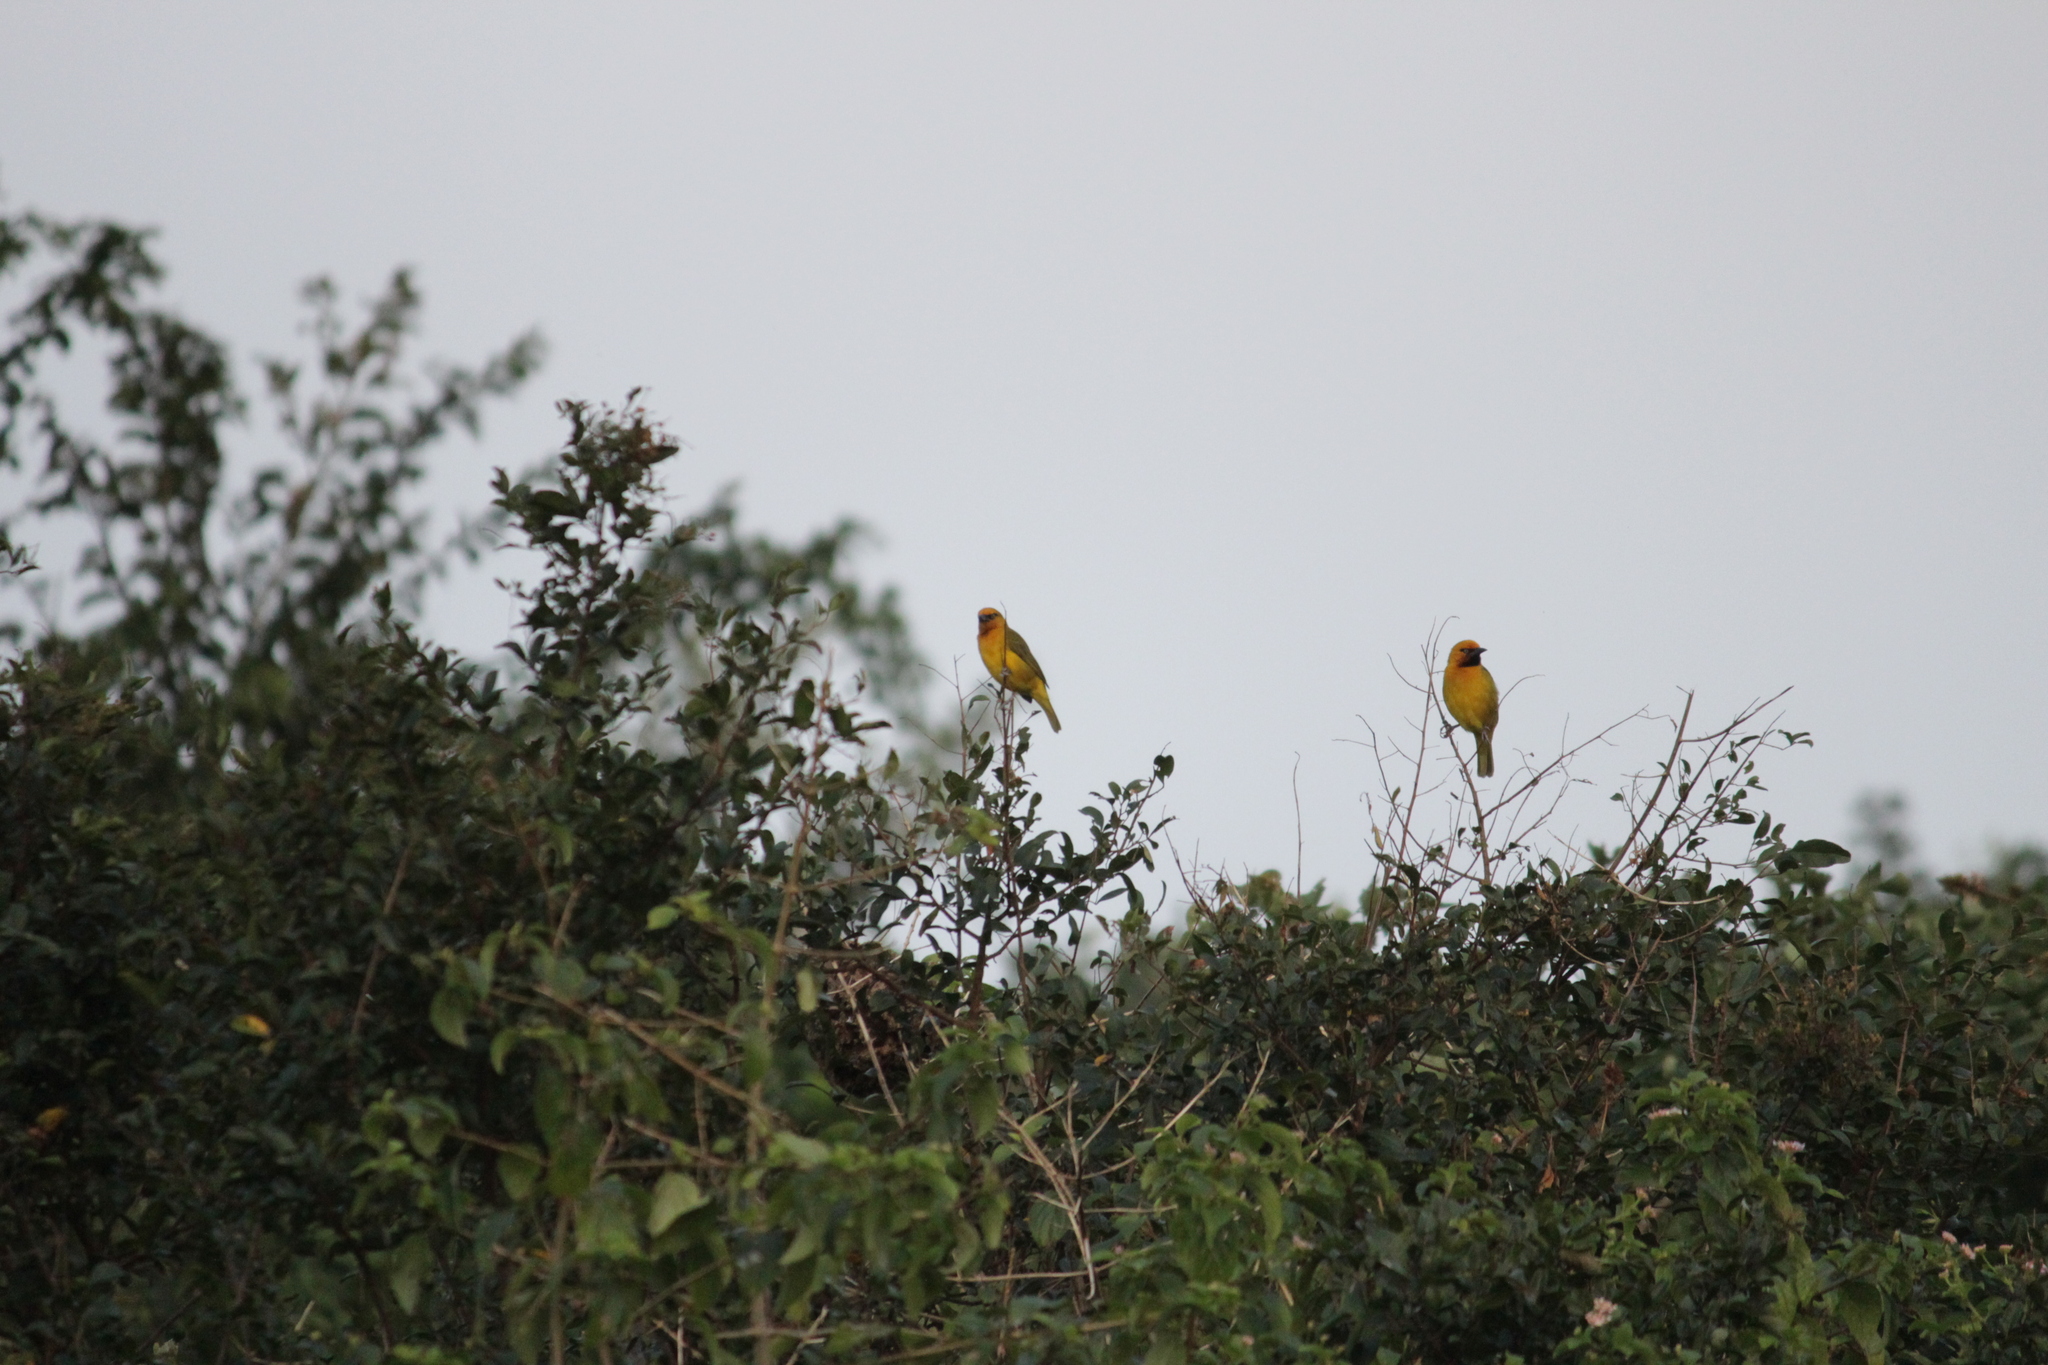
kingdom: Animalia
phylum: Chordata
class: Aves
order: Passeriformes
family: Ploceidae
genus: Ploceus
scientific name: Ploceus ocularis
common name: Spectacled weaver
